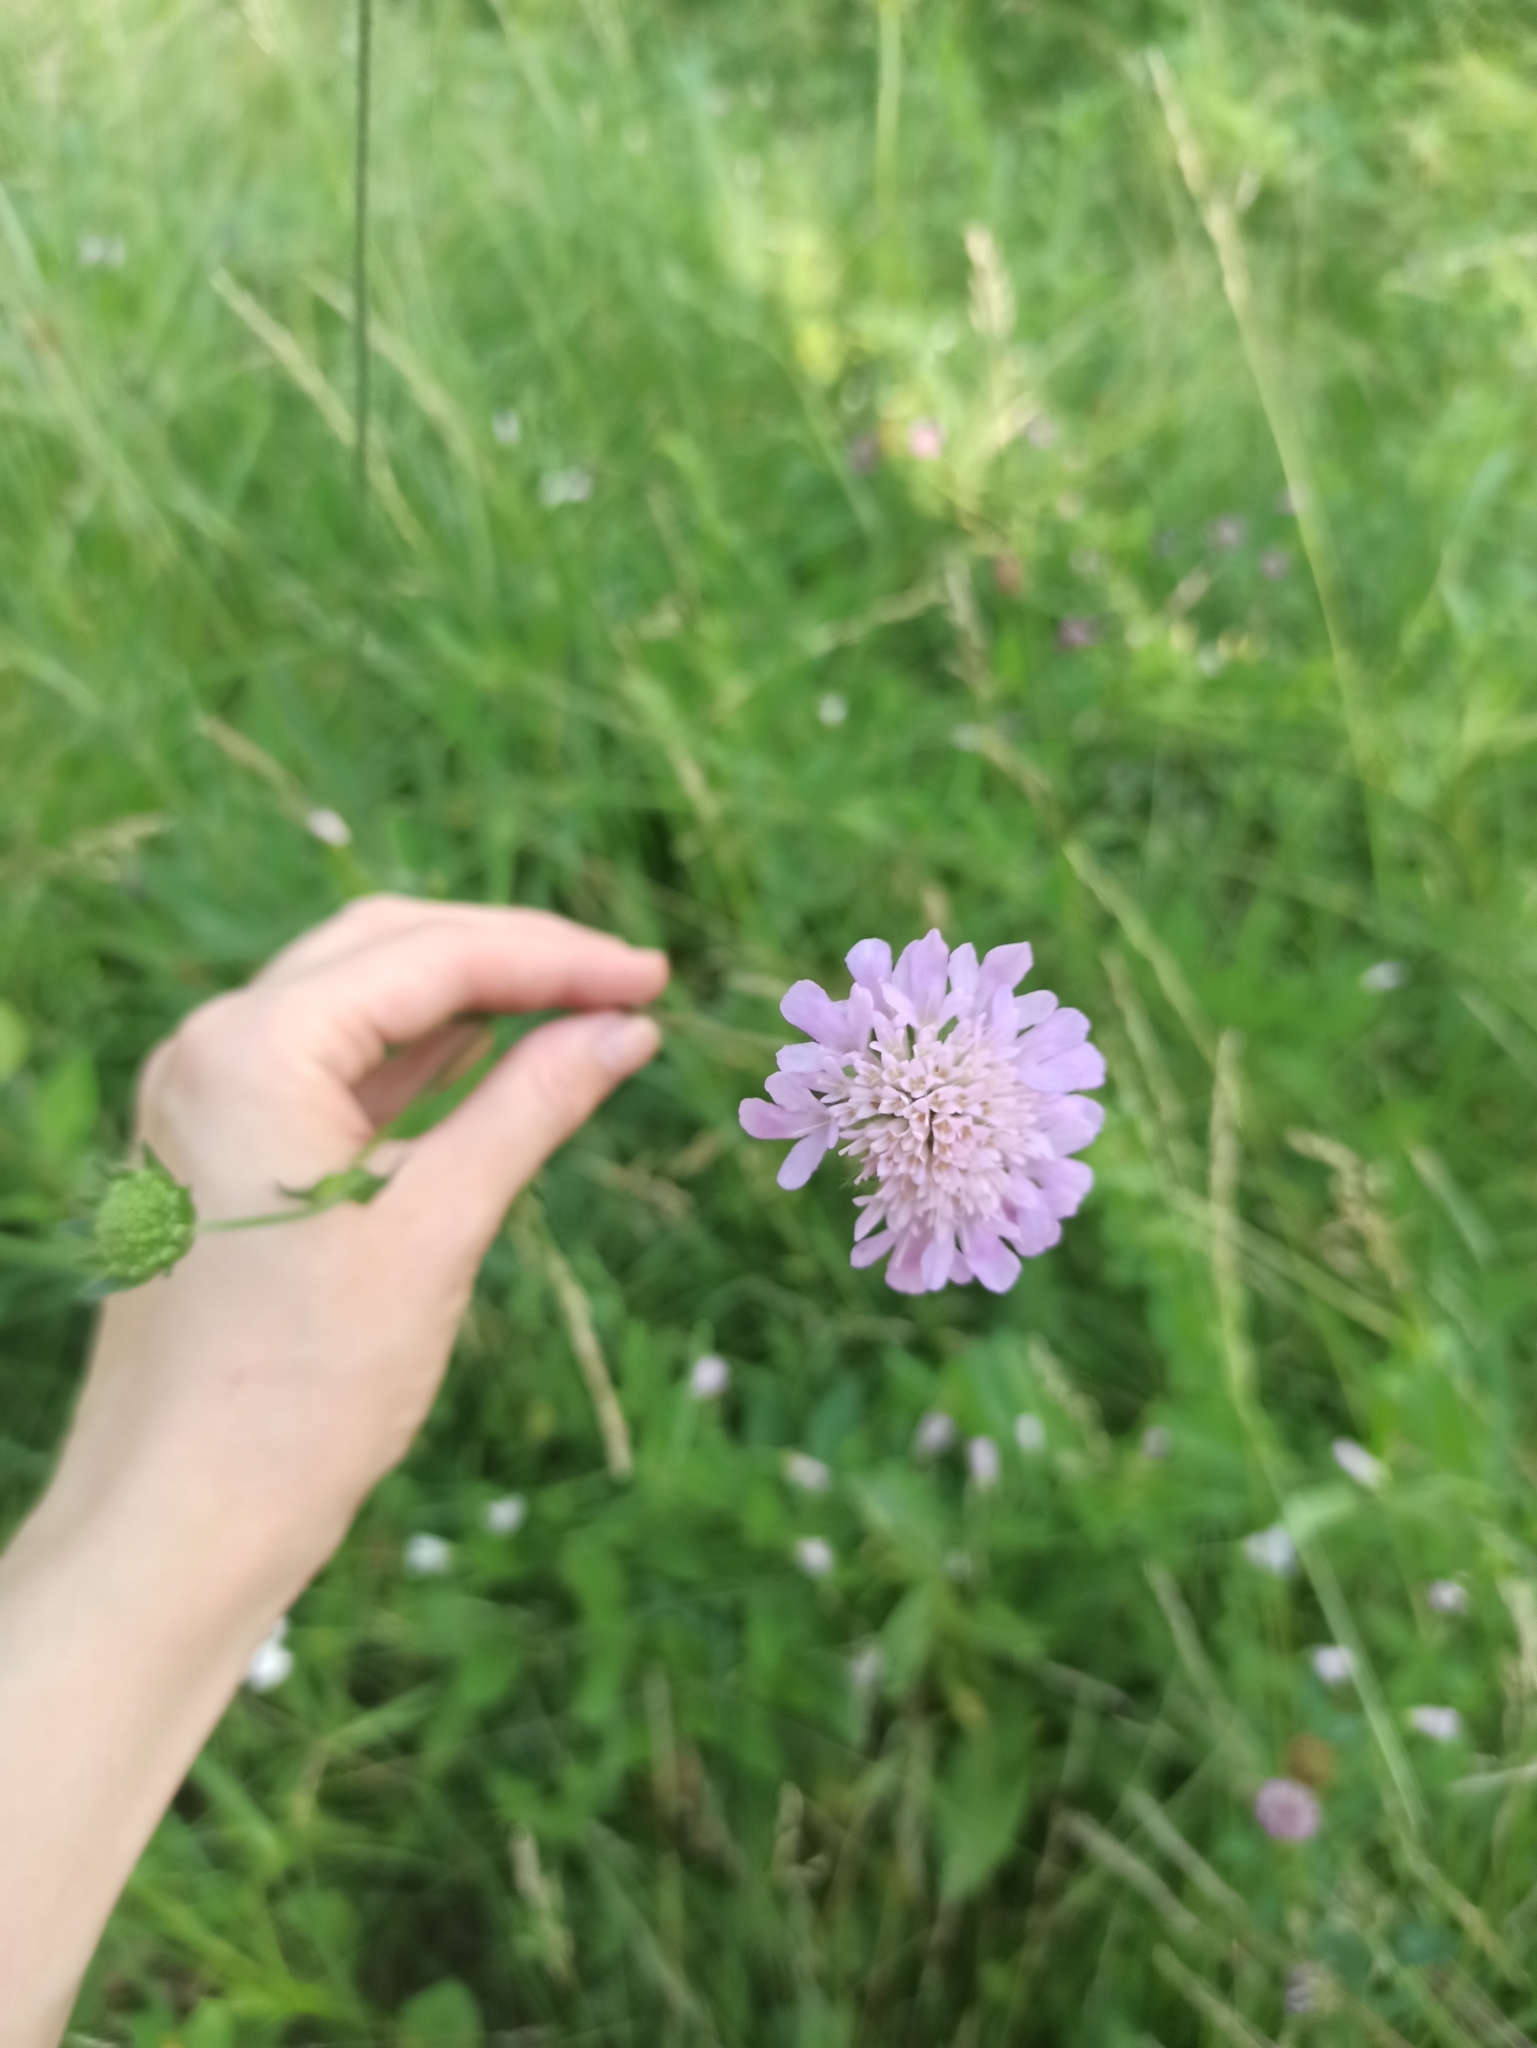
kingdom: Plantae
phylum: Tracheophyta
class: Magnoliopsida
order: Dipsacales
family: Caprifoliaceae
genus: Knautia
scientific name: Knautia arvensis
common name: Field scabiosa
